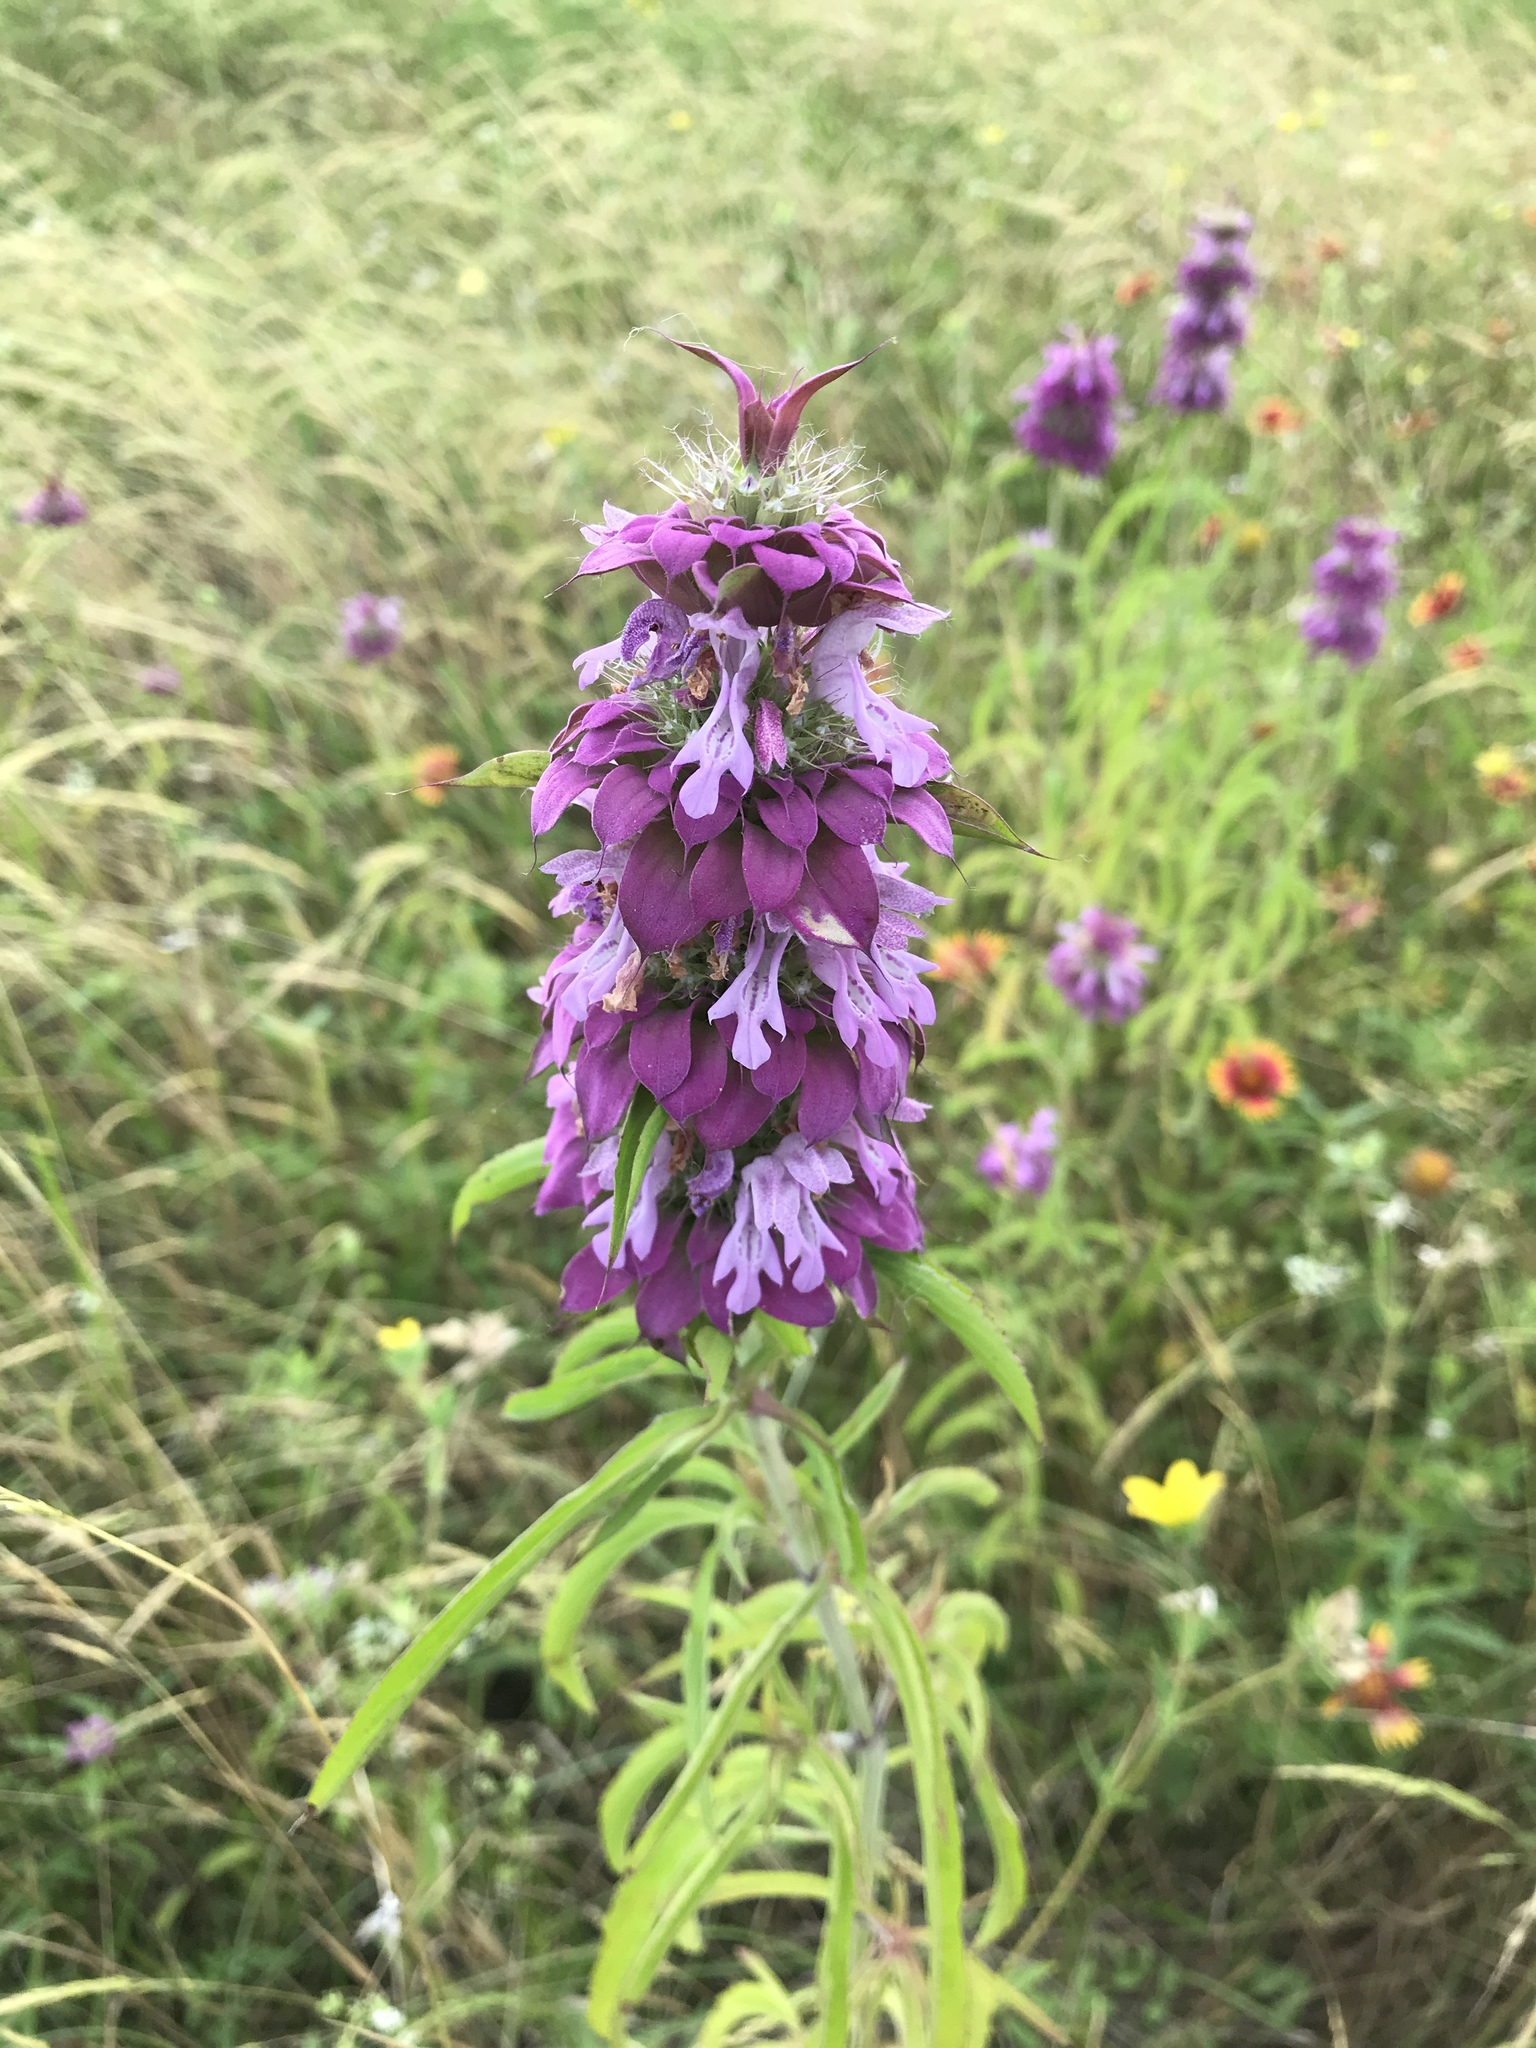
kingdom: Plantae
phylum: Tracheophyta
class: Magnoliopsida
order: Lamiales
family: Lamiaceae
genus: Monarda
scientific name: Monarda citriodora
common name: Lemon beebalm
